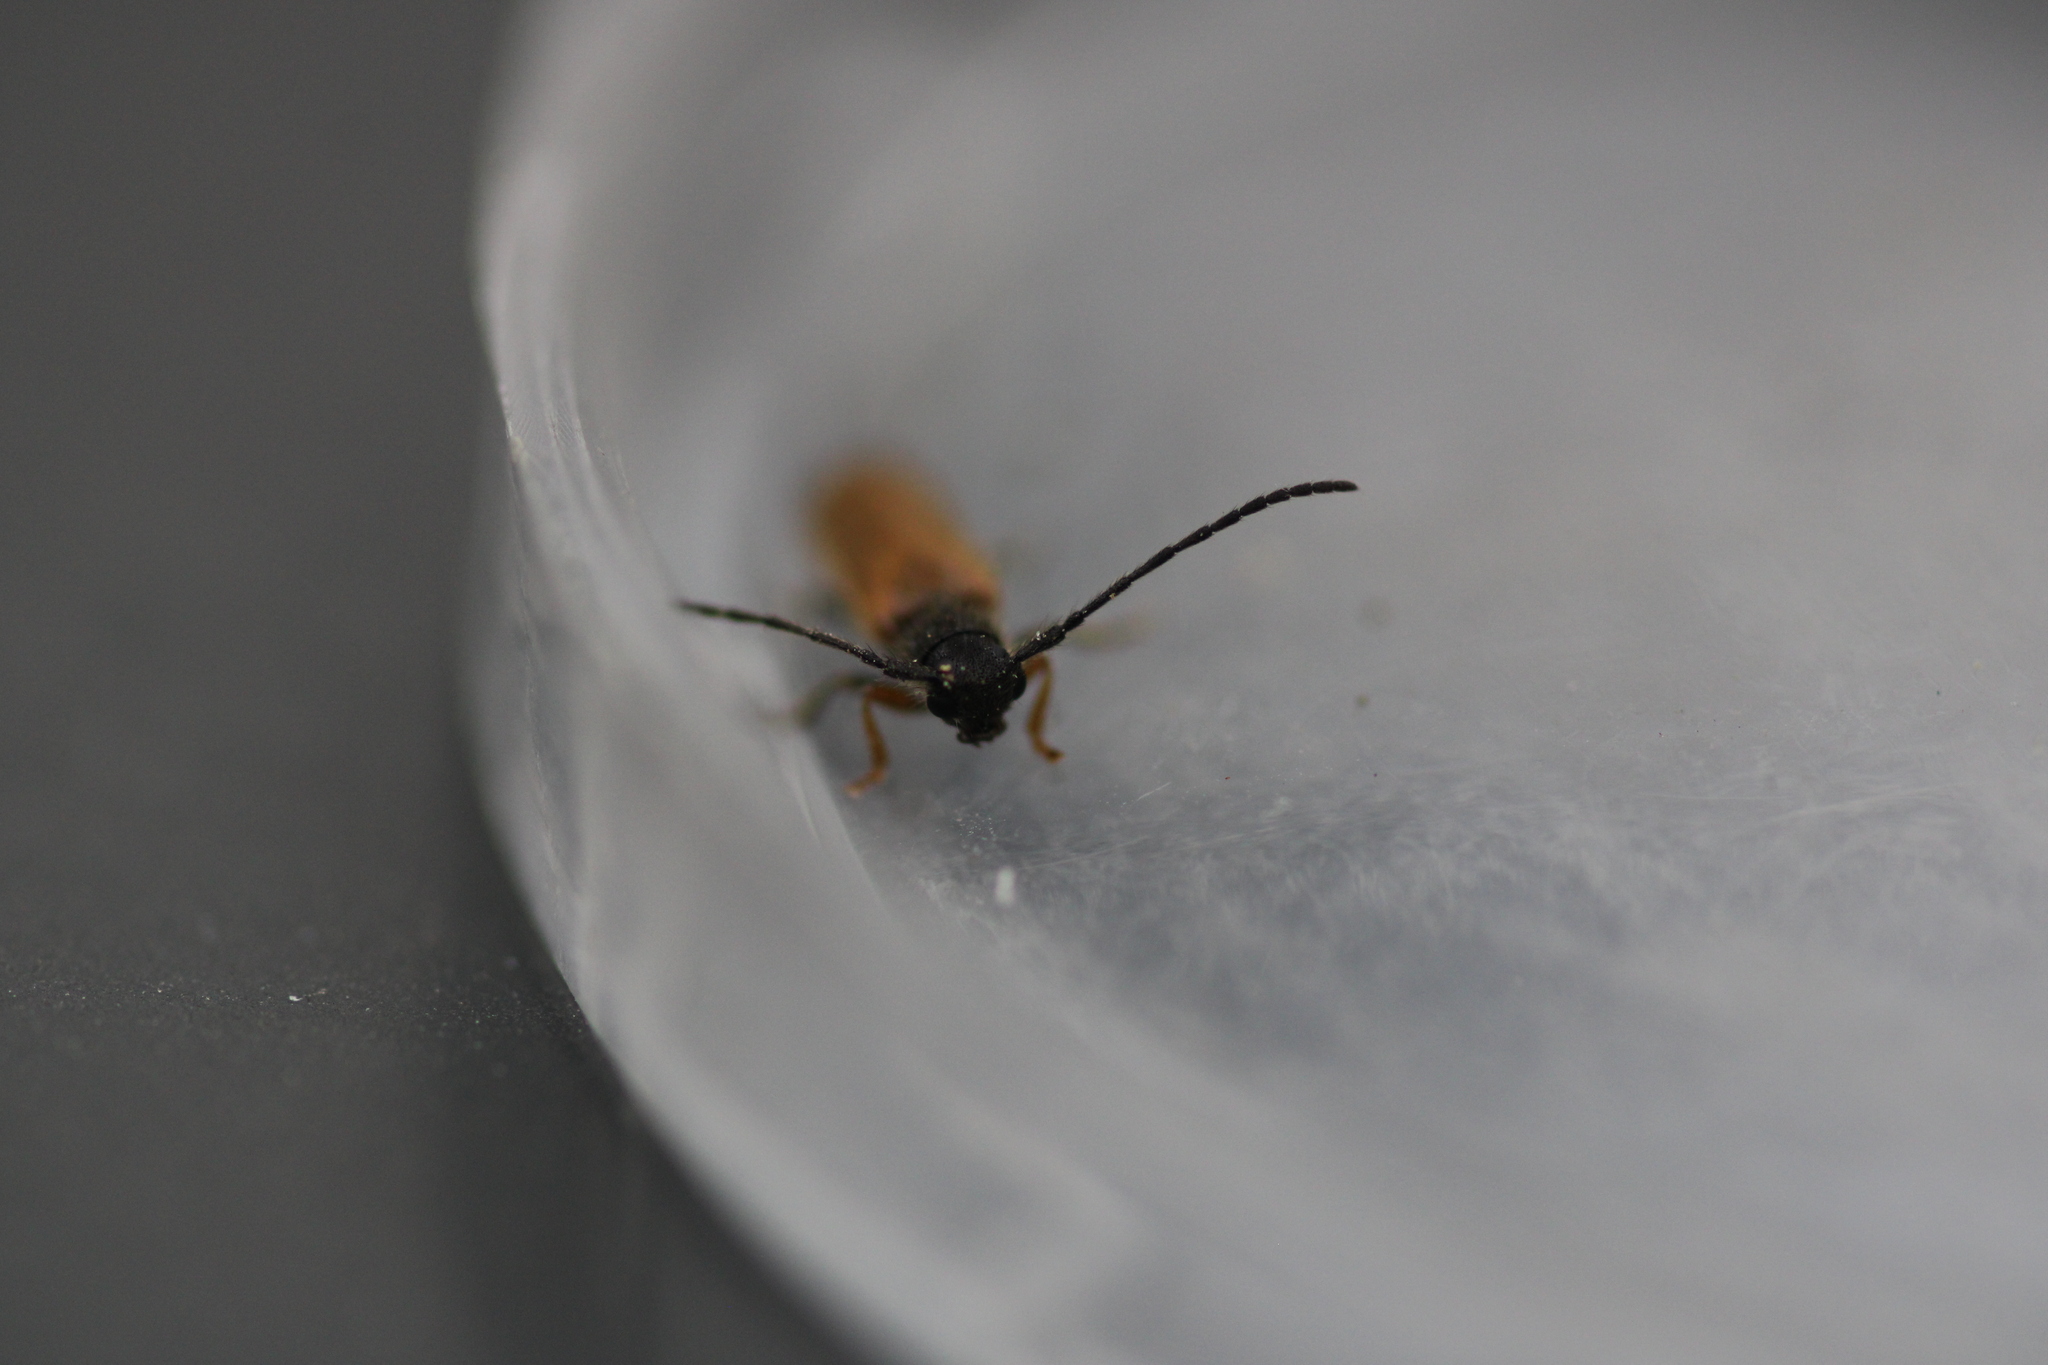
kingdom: Animalia
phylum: Arthropoda
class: Insecta
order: Coleoptera
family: Cerambycidae
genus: Tetrops
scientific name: Tetrops praeustus
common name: Plum beetle
